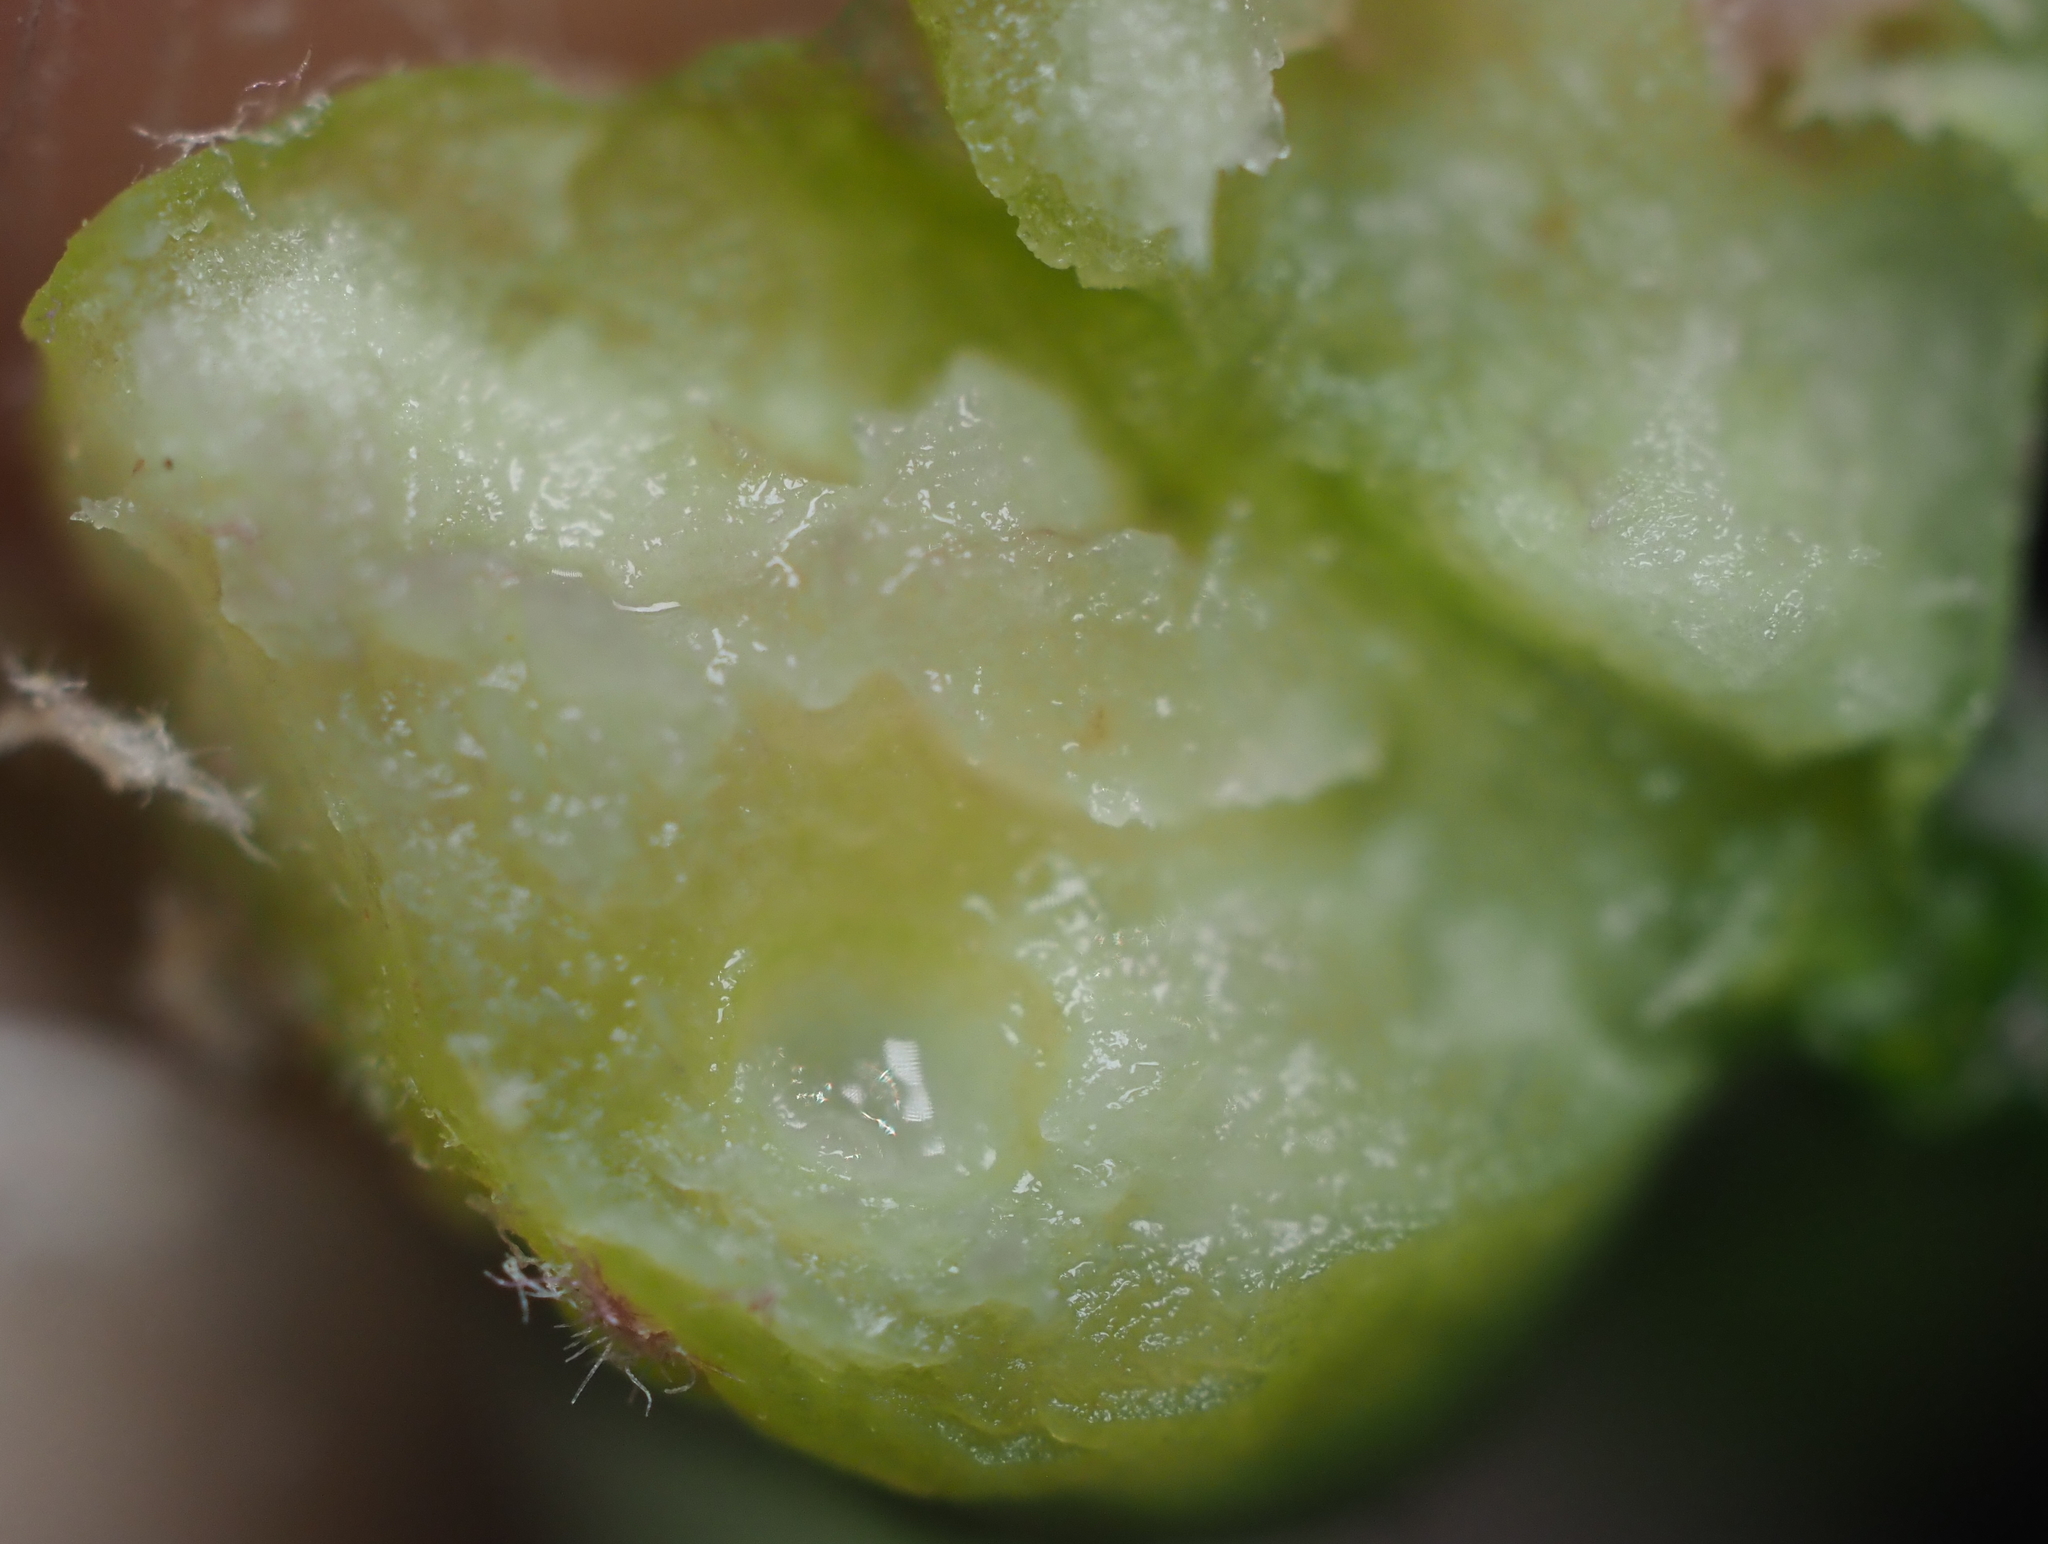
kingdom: Animalia
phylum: Arthropoda
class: Insecta
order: Hymenoptera
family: Cynipidae
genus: Andricus
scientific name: Andricus
